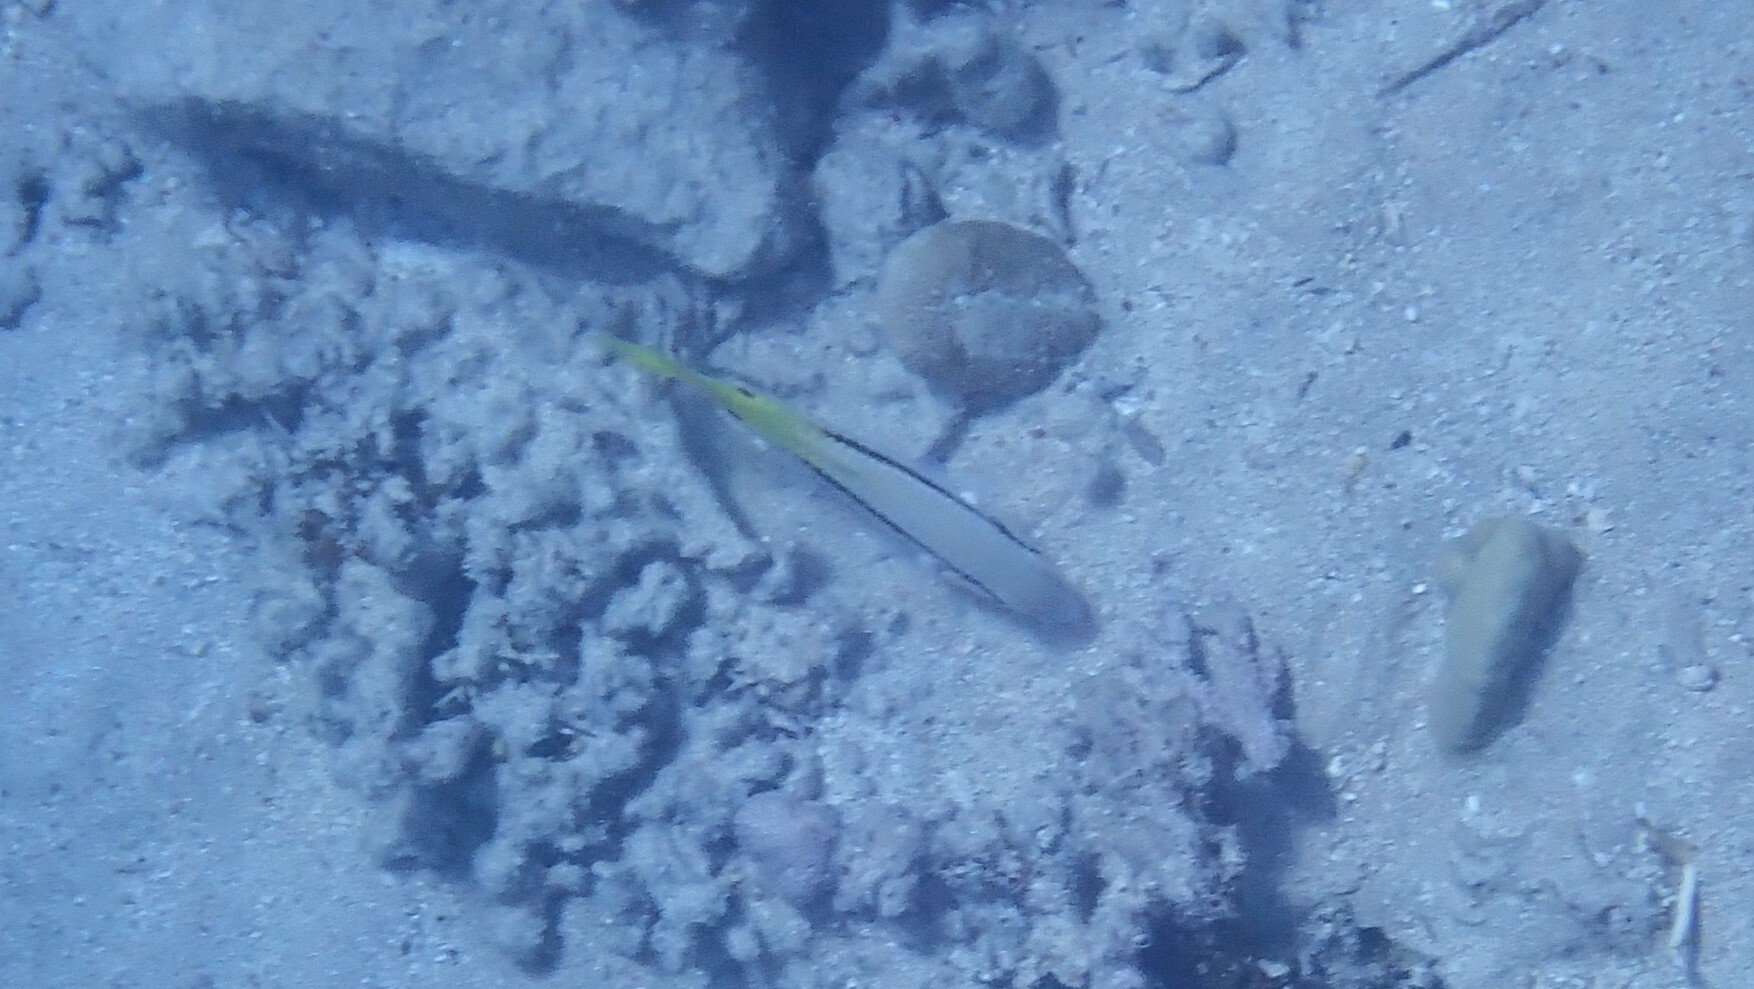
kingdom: Animalia
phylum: Chordata
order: Perciformes
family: Mullidae
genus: Parupeneus
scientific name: Parupeneus forsskali
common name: Red sea goatfish
